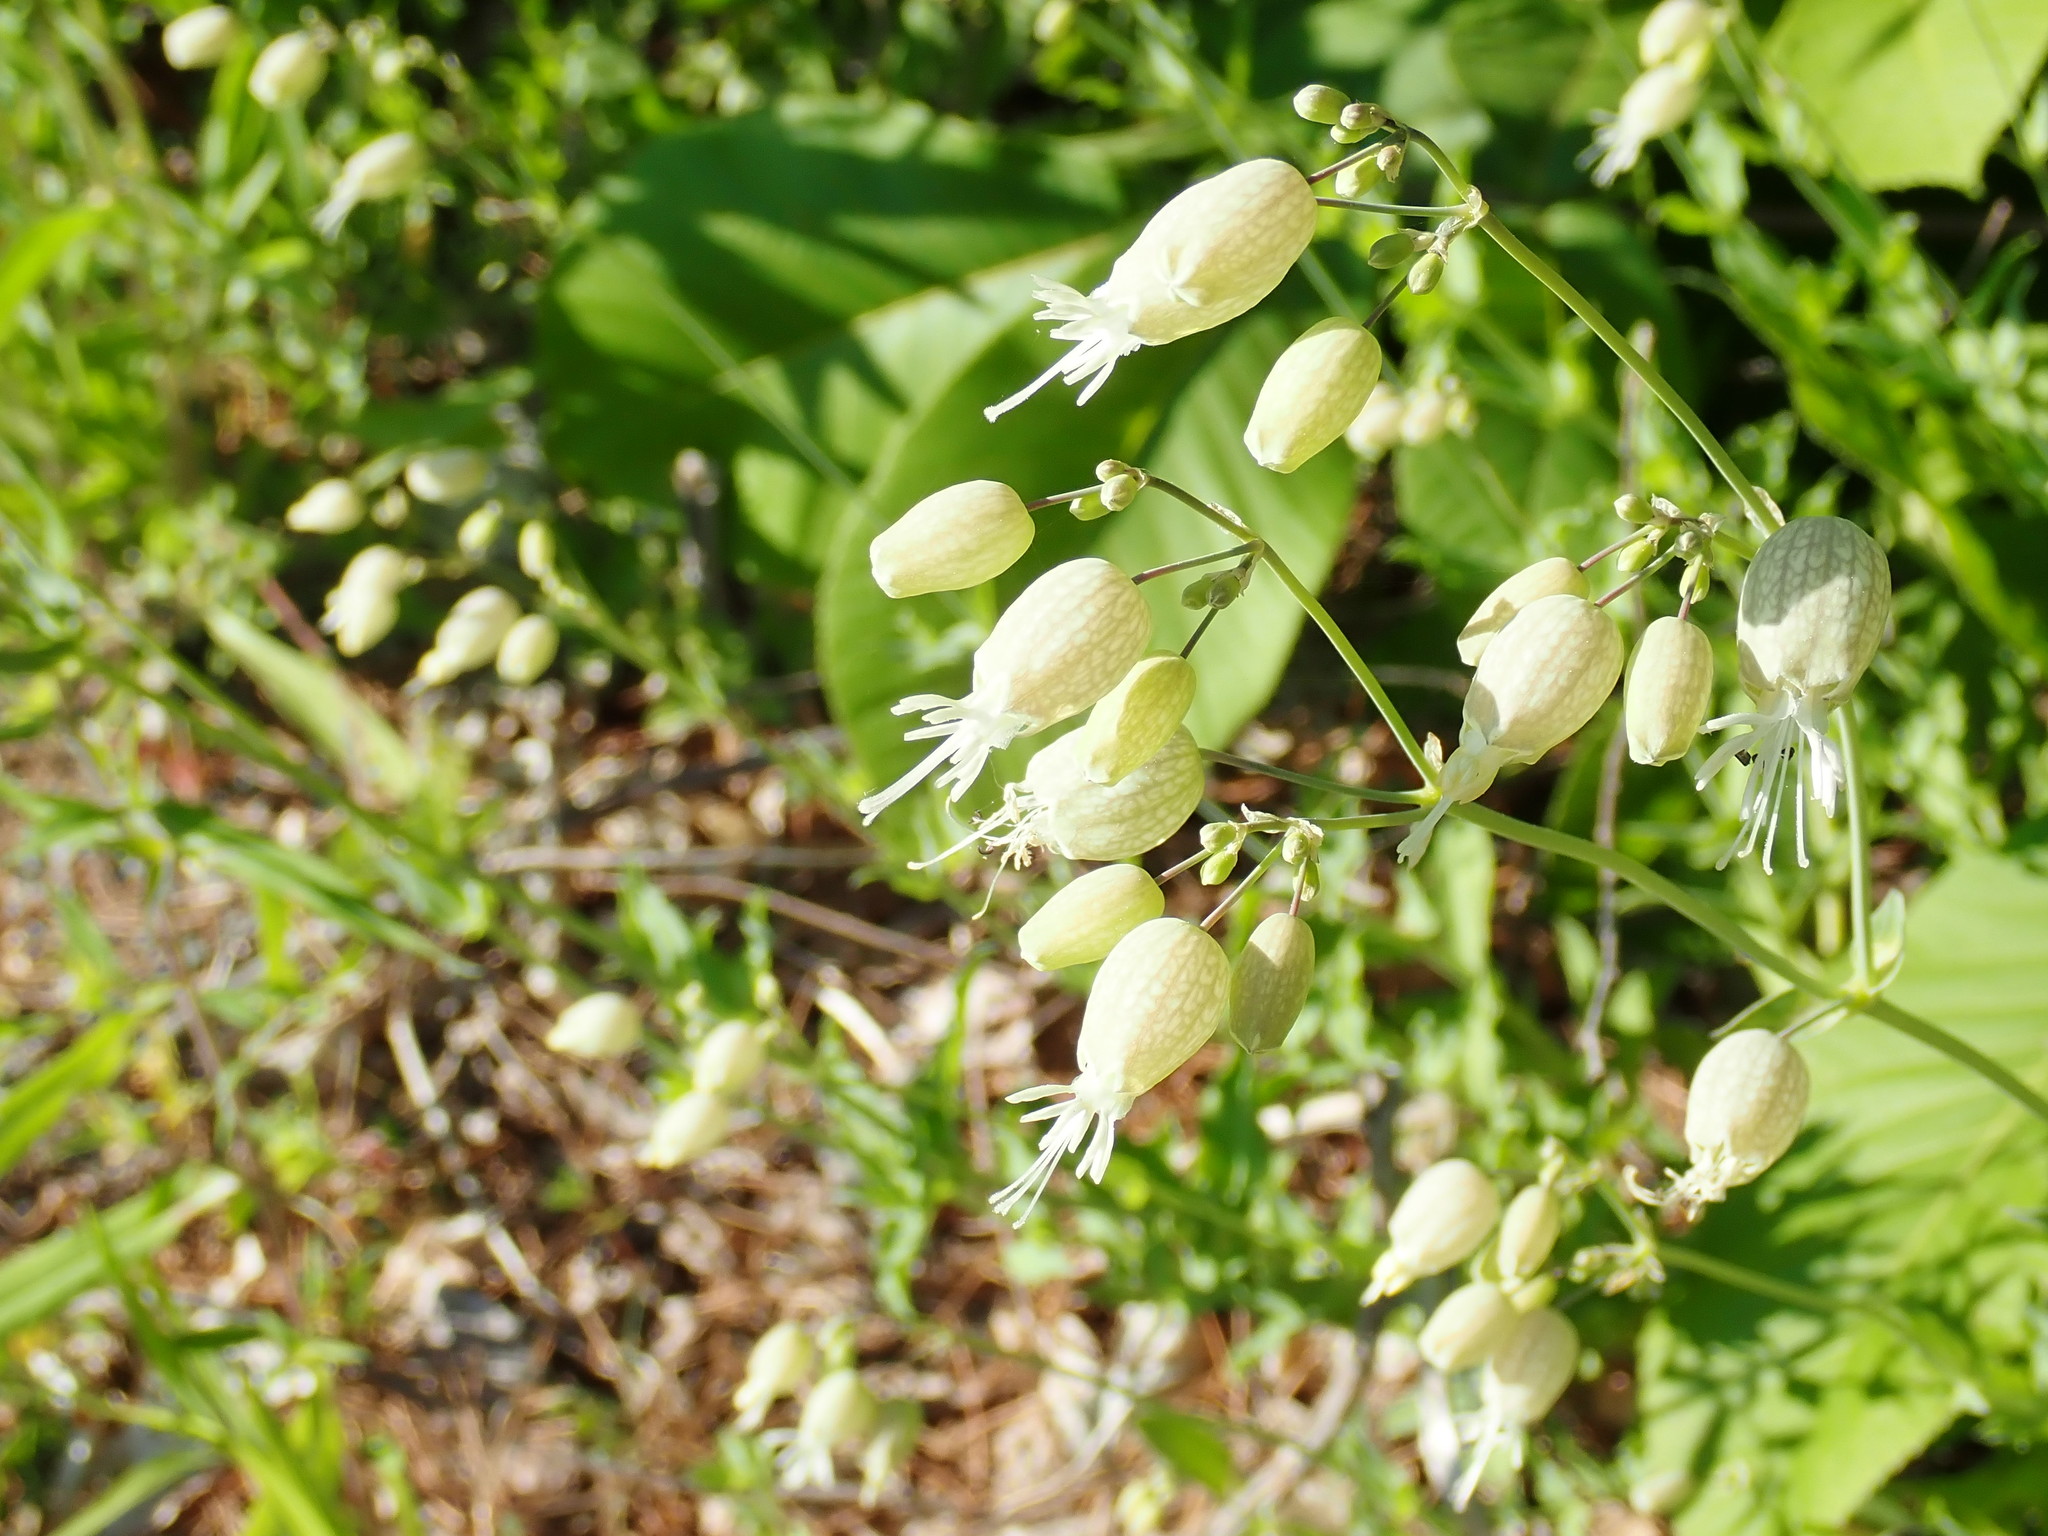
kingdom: Plantae
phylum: Tracheophyta
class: Magnoliopsida
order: Caryophyllales
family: Caryophyllaceae
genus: Silene
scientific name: Silene vulgaris
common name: Bladder campion
